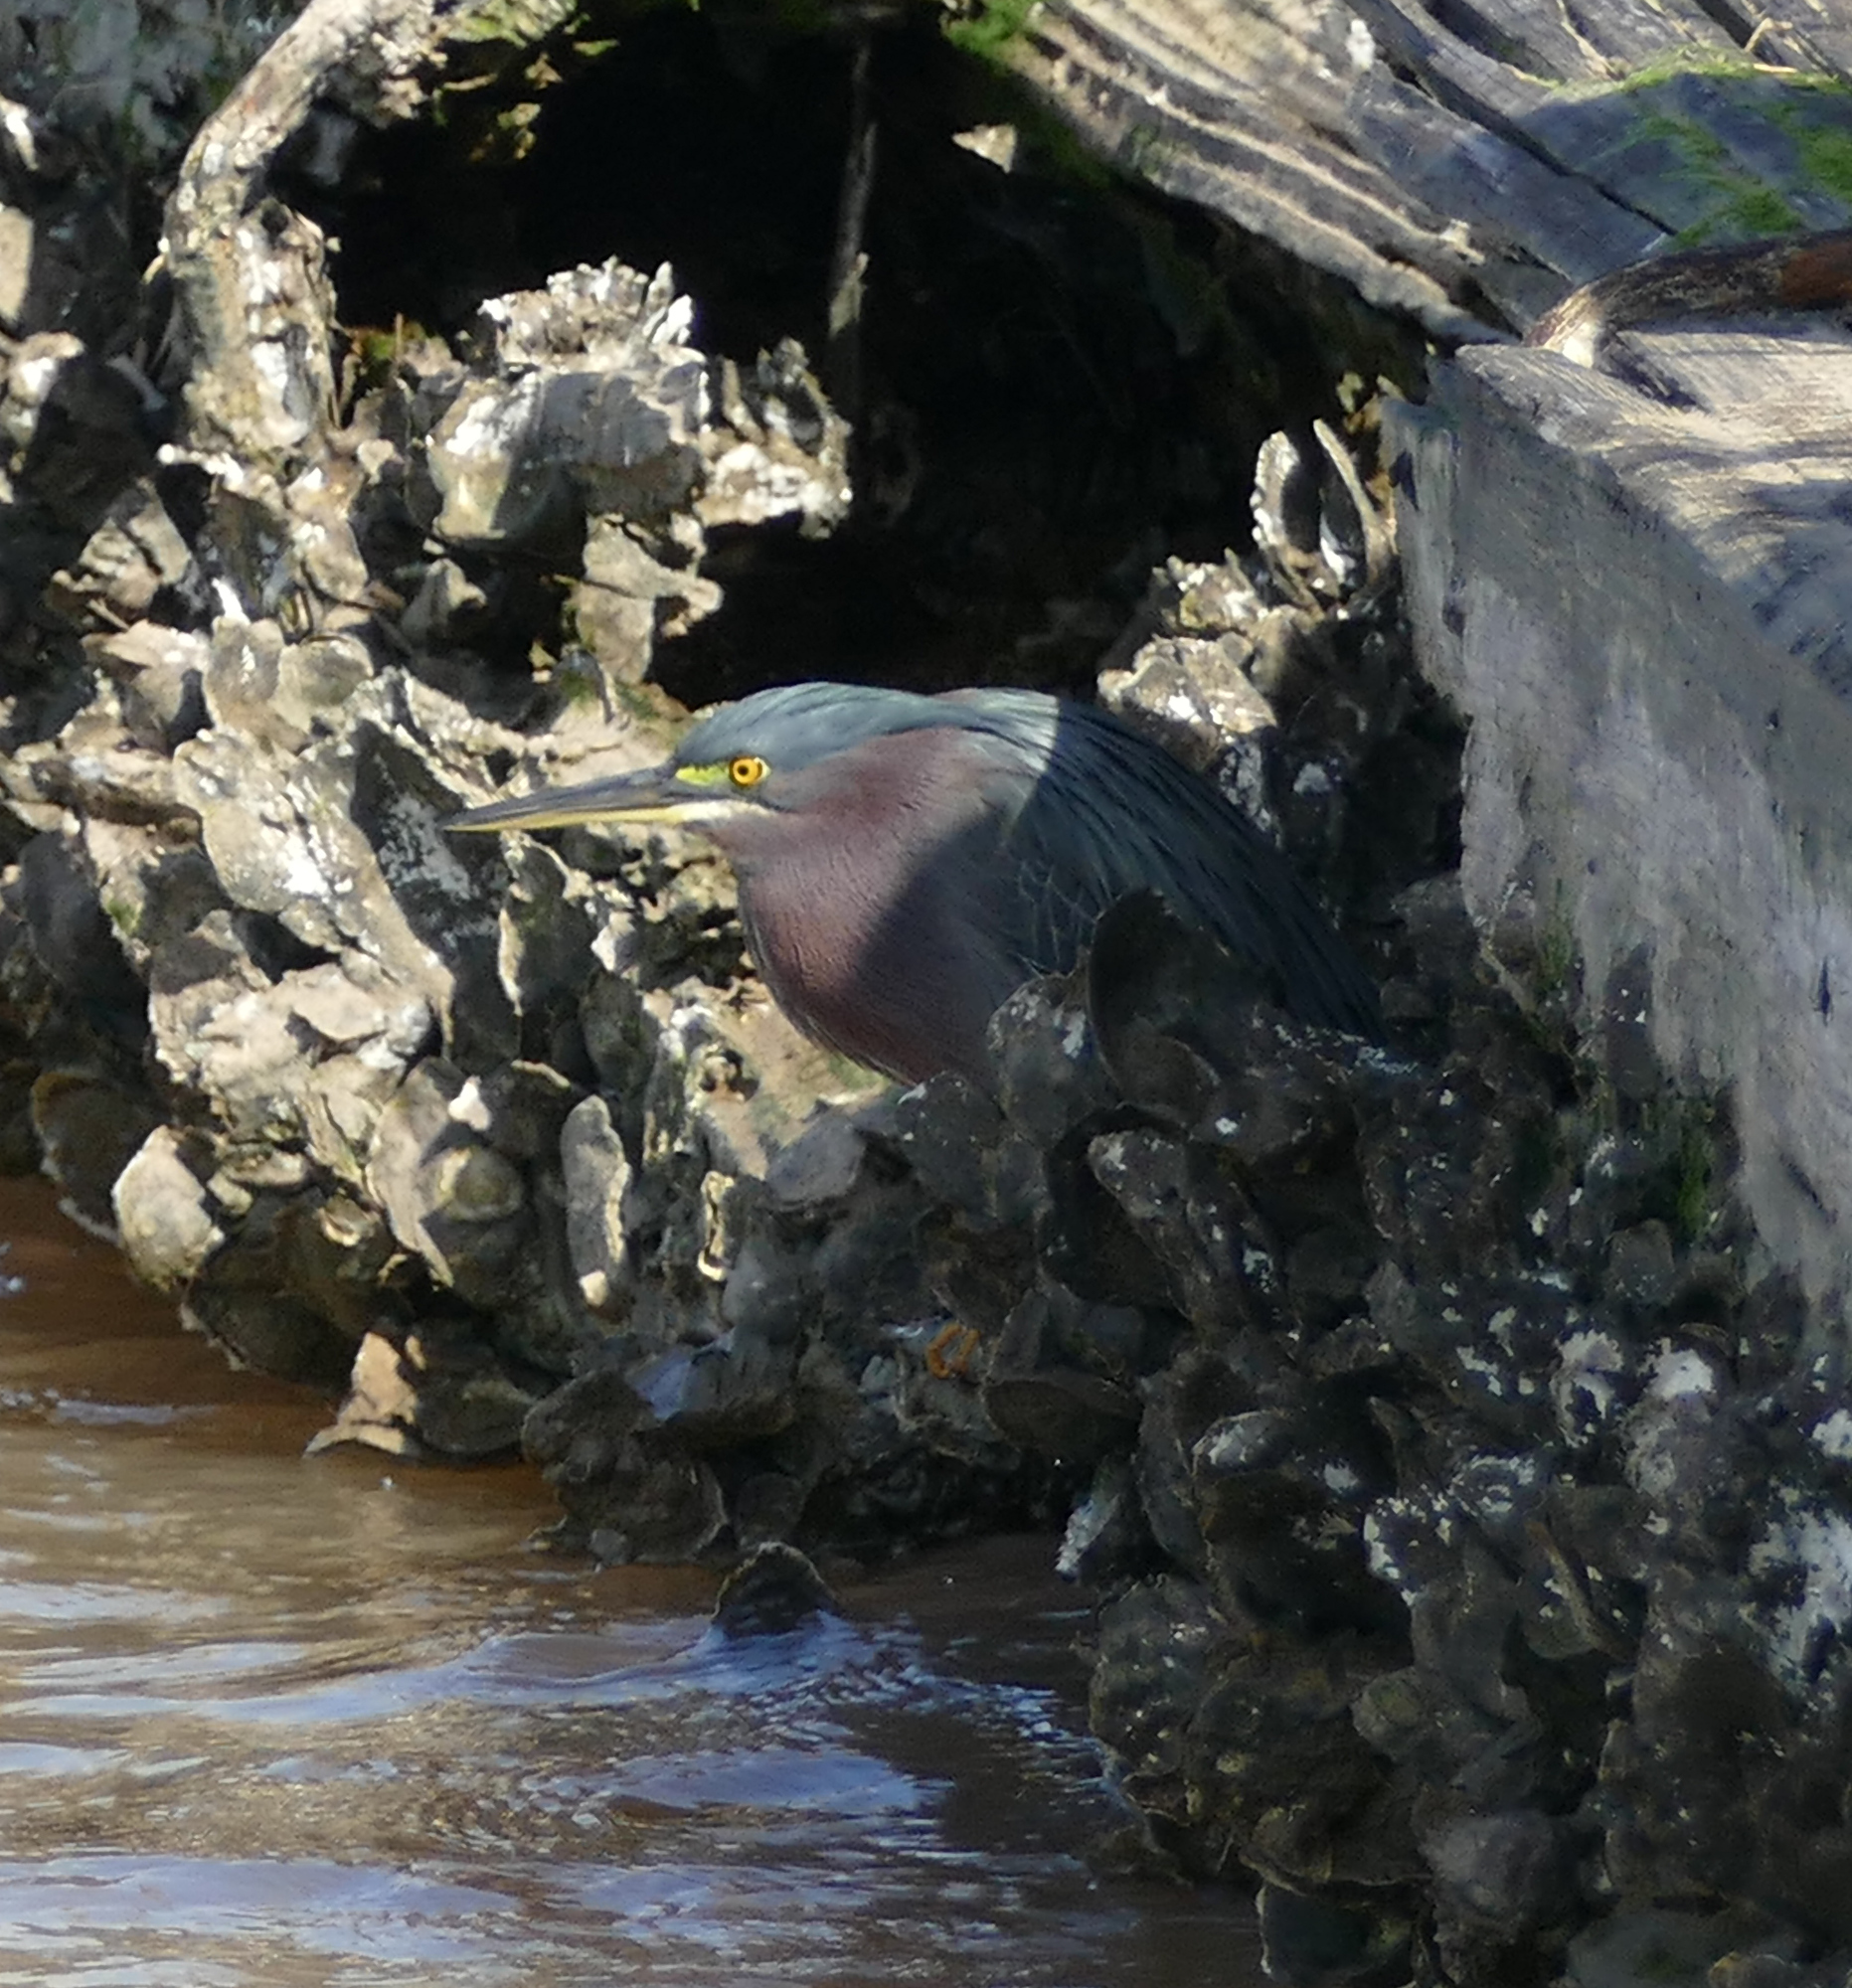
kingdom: Animalia
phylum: Chordata
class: Aves
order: Pelecaniformes
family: Ardeidae
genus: Butorides
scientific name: Butorides virescens
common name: Green heron
